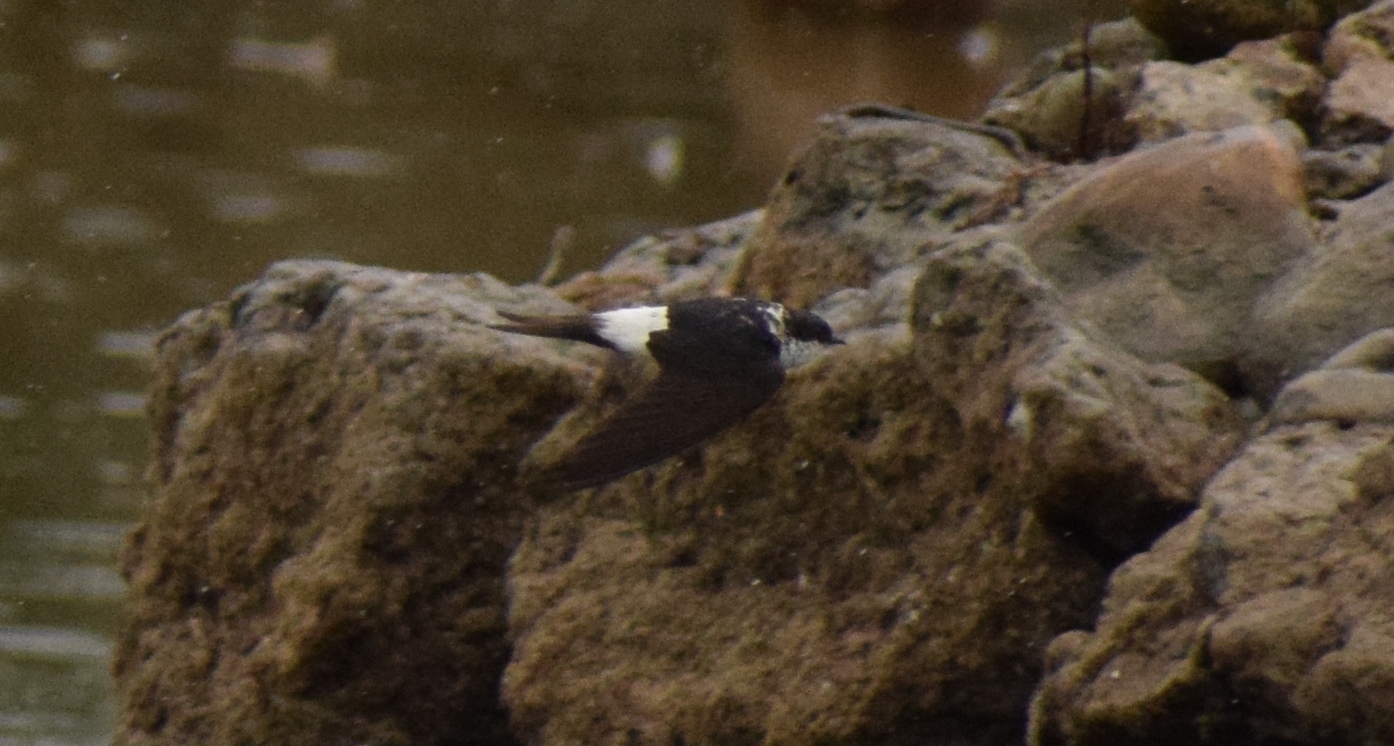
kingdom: Animalia
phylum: Chordata
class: Aves
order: Passeriformes
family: Hirundinidae
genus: Delichon
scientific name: Delichon urbicum
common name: Common house martin
